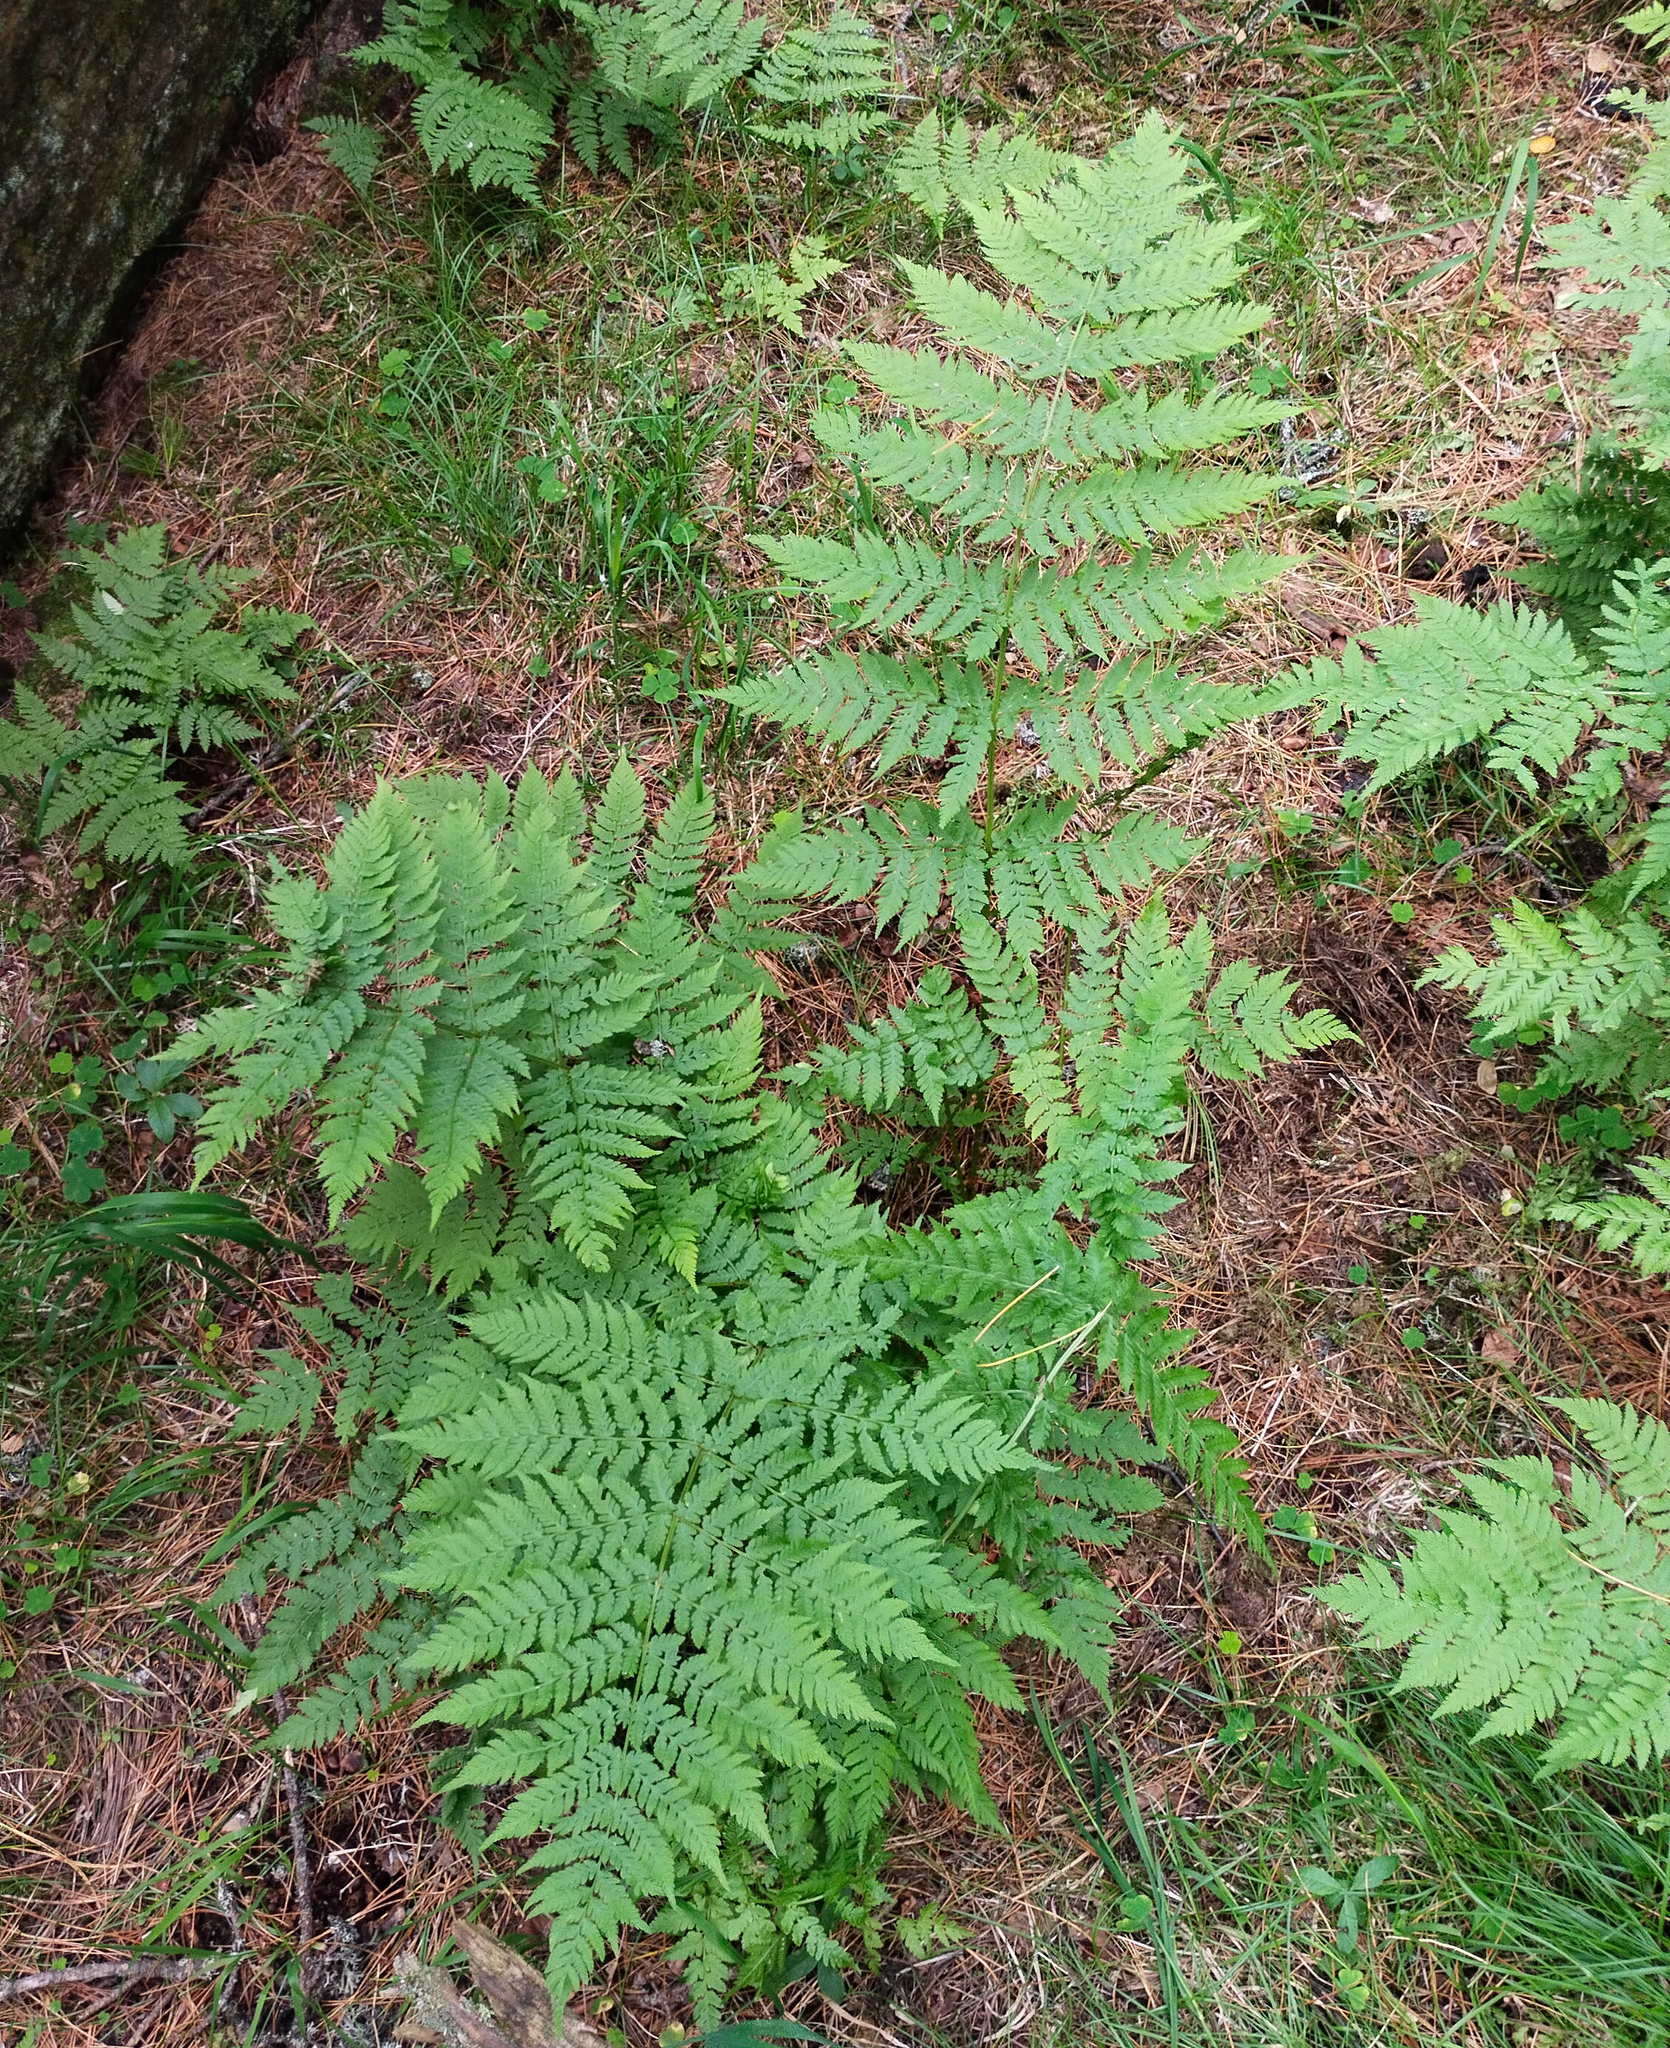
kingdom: Plantae
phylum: Tracheophyta
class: Polypodiopsida
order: Polypodiales
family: Dryopteridaceae
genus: Dryopteris
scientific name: Dryopteris expansa
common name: Northern buckler fern
